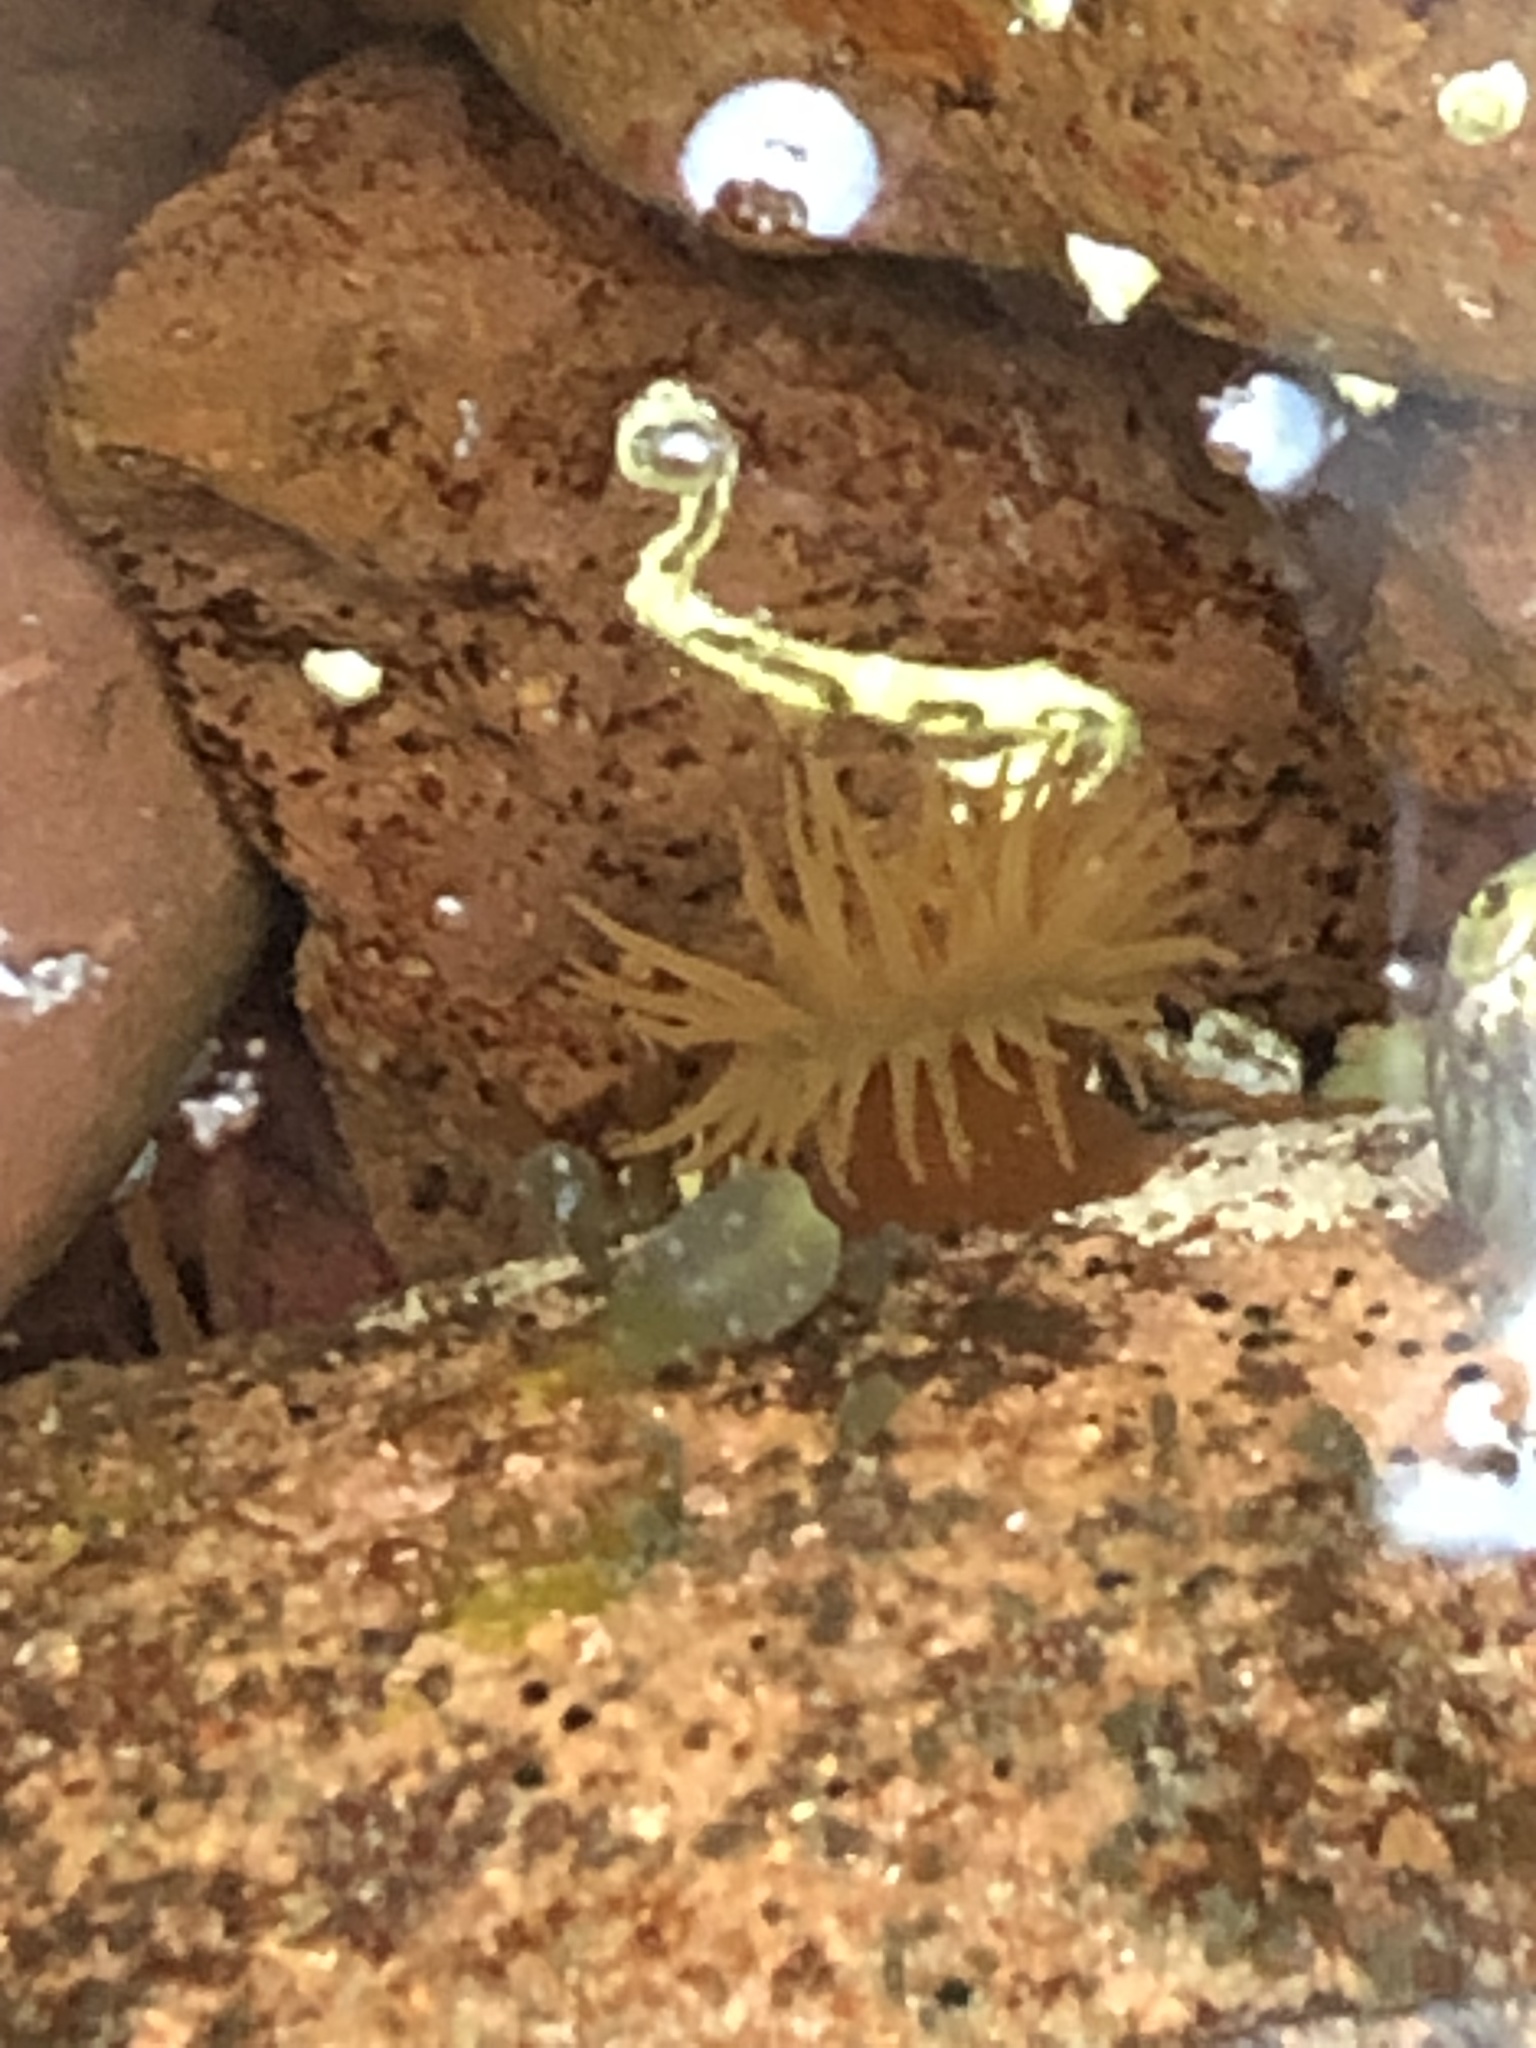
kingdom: Animalia
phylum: Cnidaria
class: Anthozoa
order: Actiniaria
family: Actiniidae
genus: Actinia
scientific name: Actinia equina
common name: Beadlet anemone
